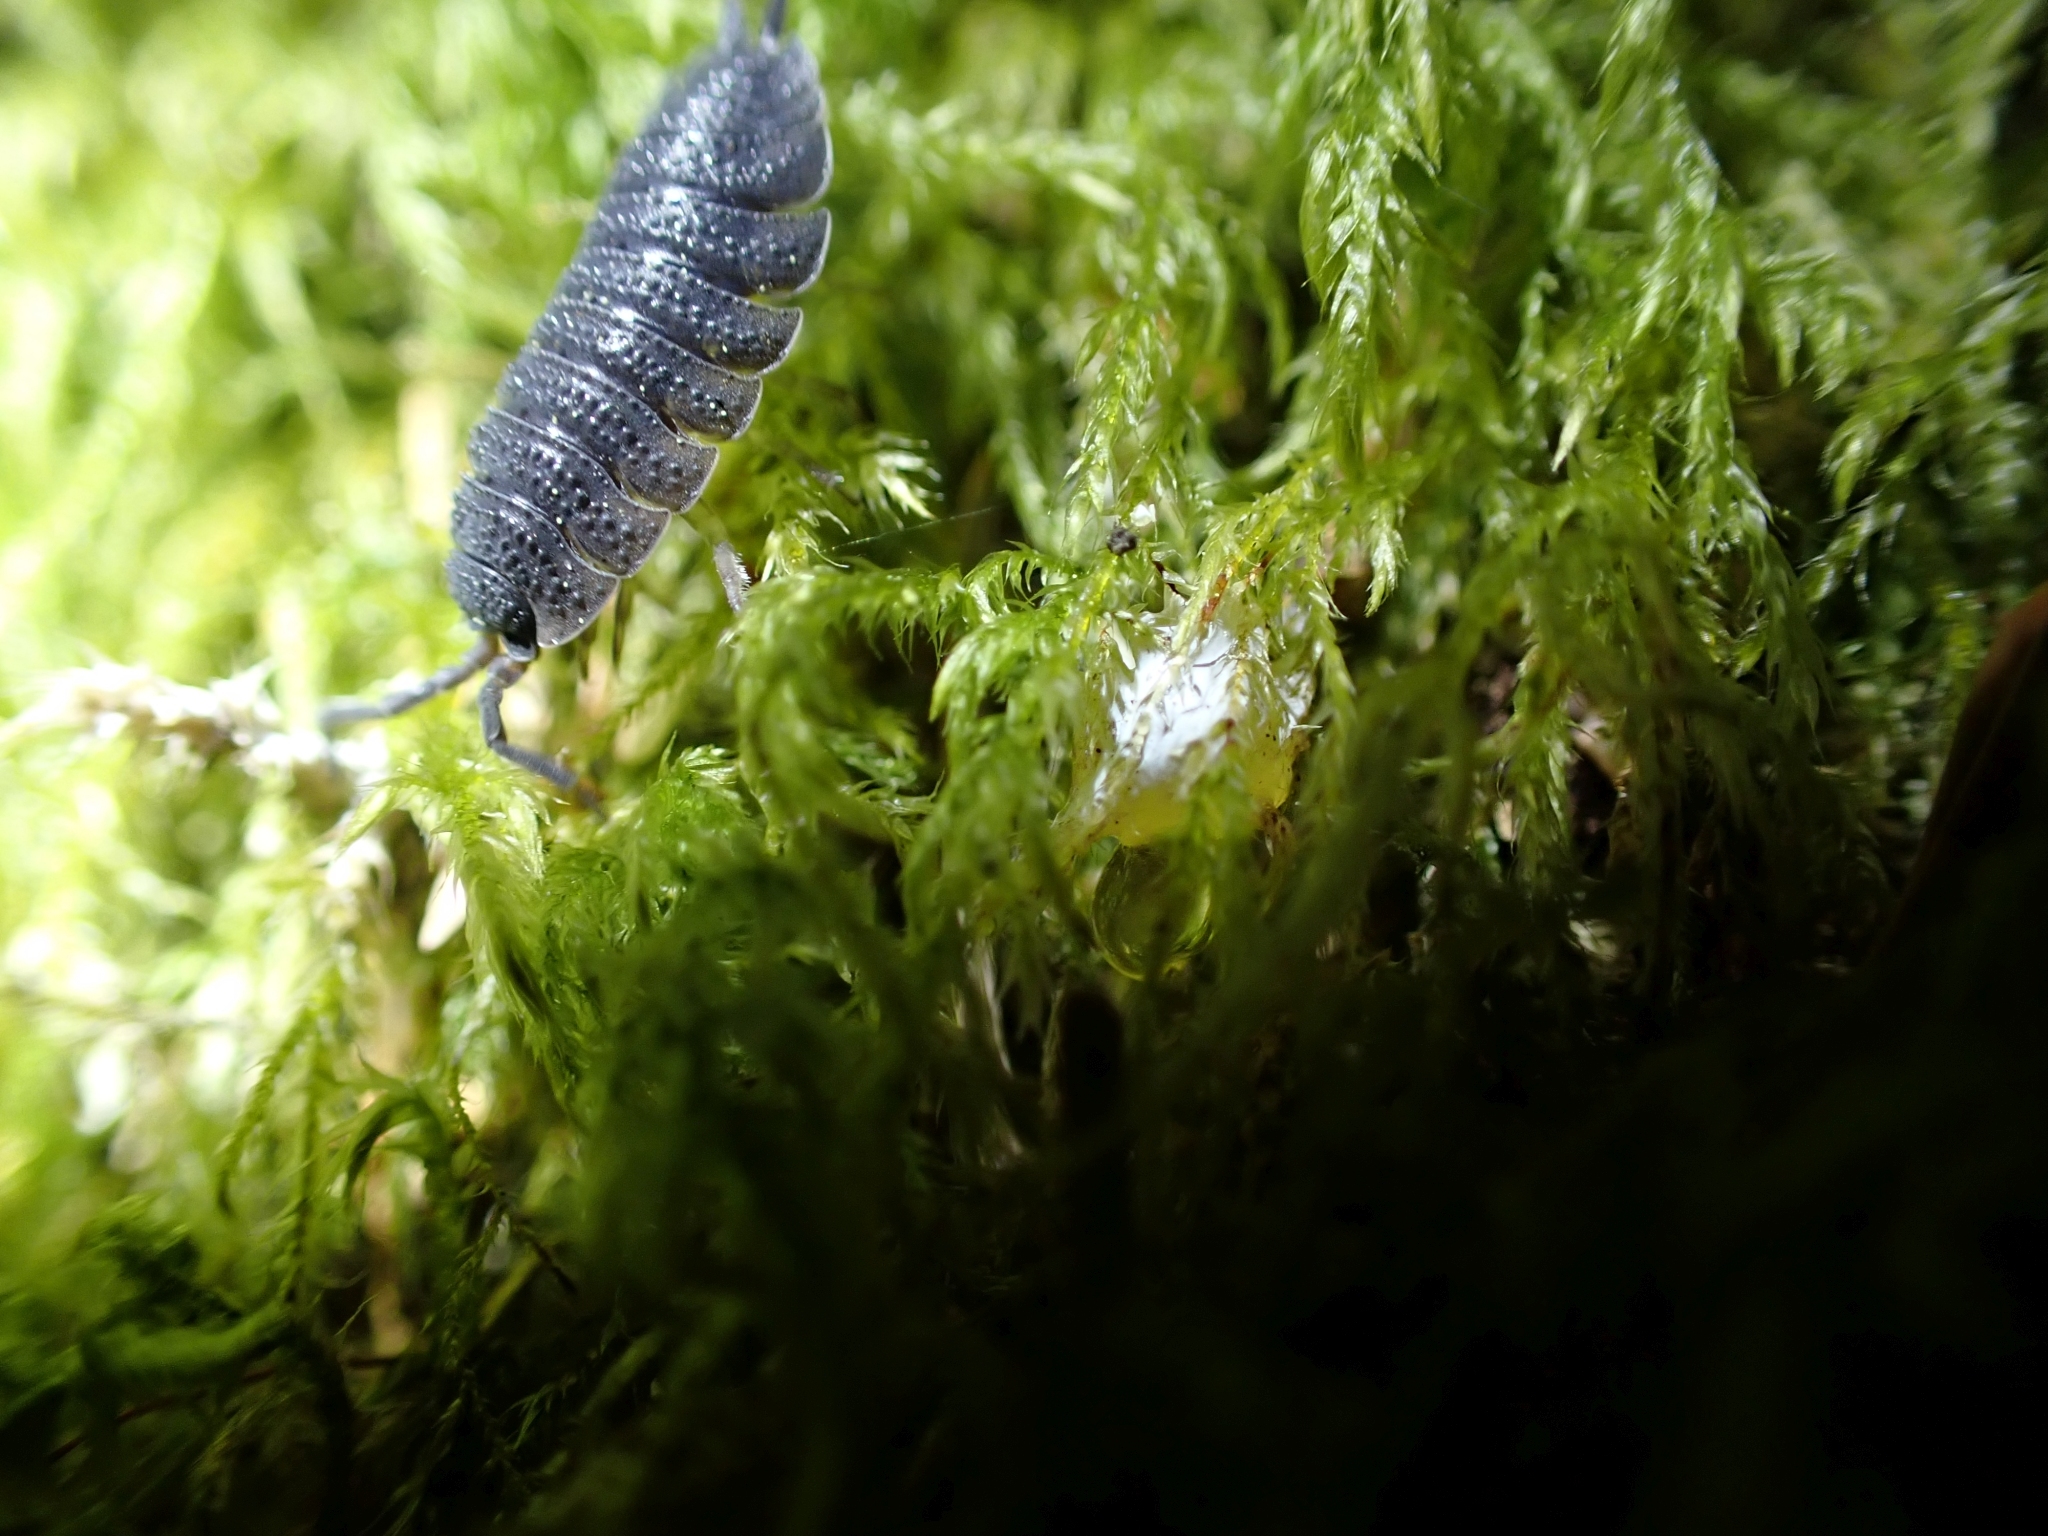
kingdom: Animalia
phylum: Arthropoda
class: Malacostraca
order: Isopoda
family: Porcellionidae
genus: Porcellio
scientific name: Porcellio scaber
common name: Common rough woodlouse
